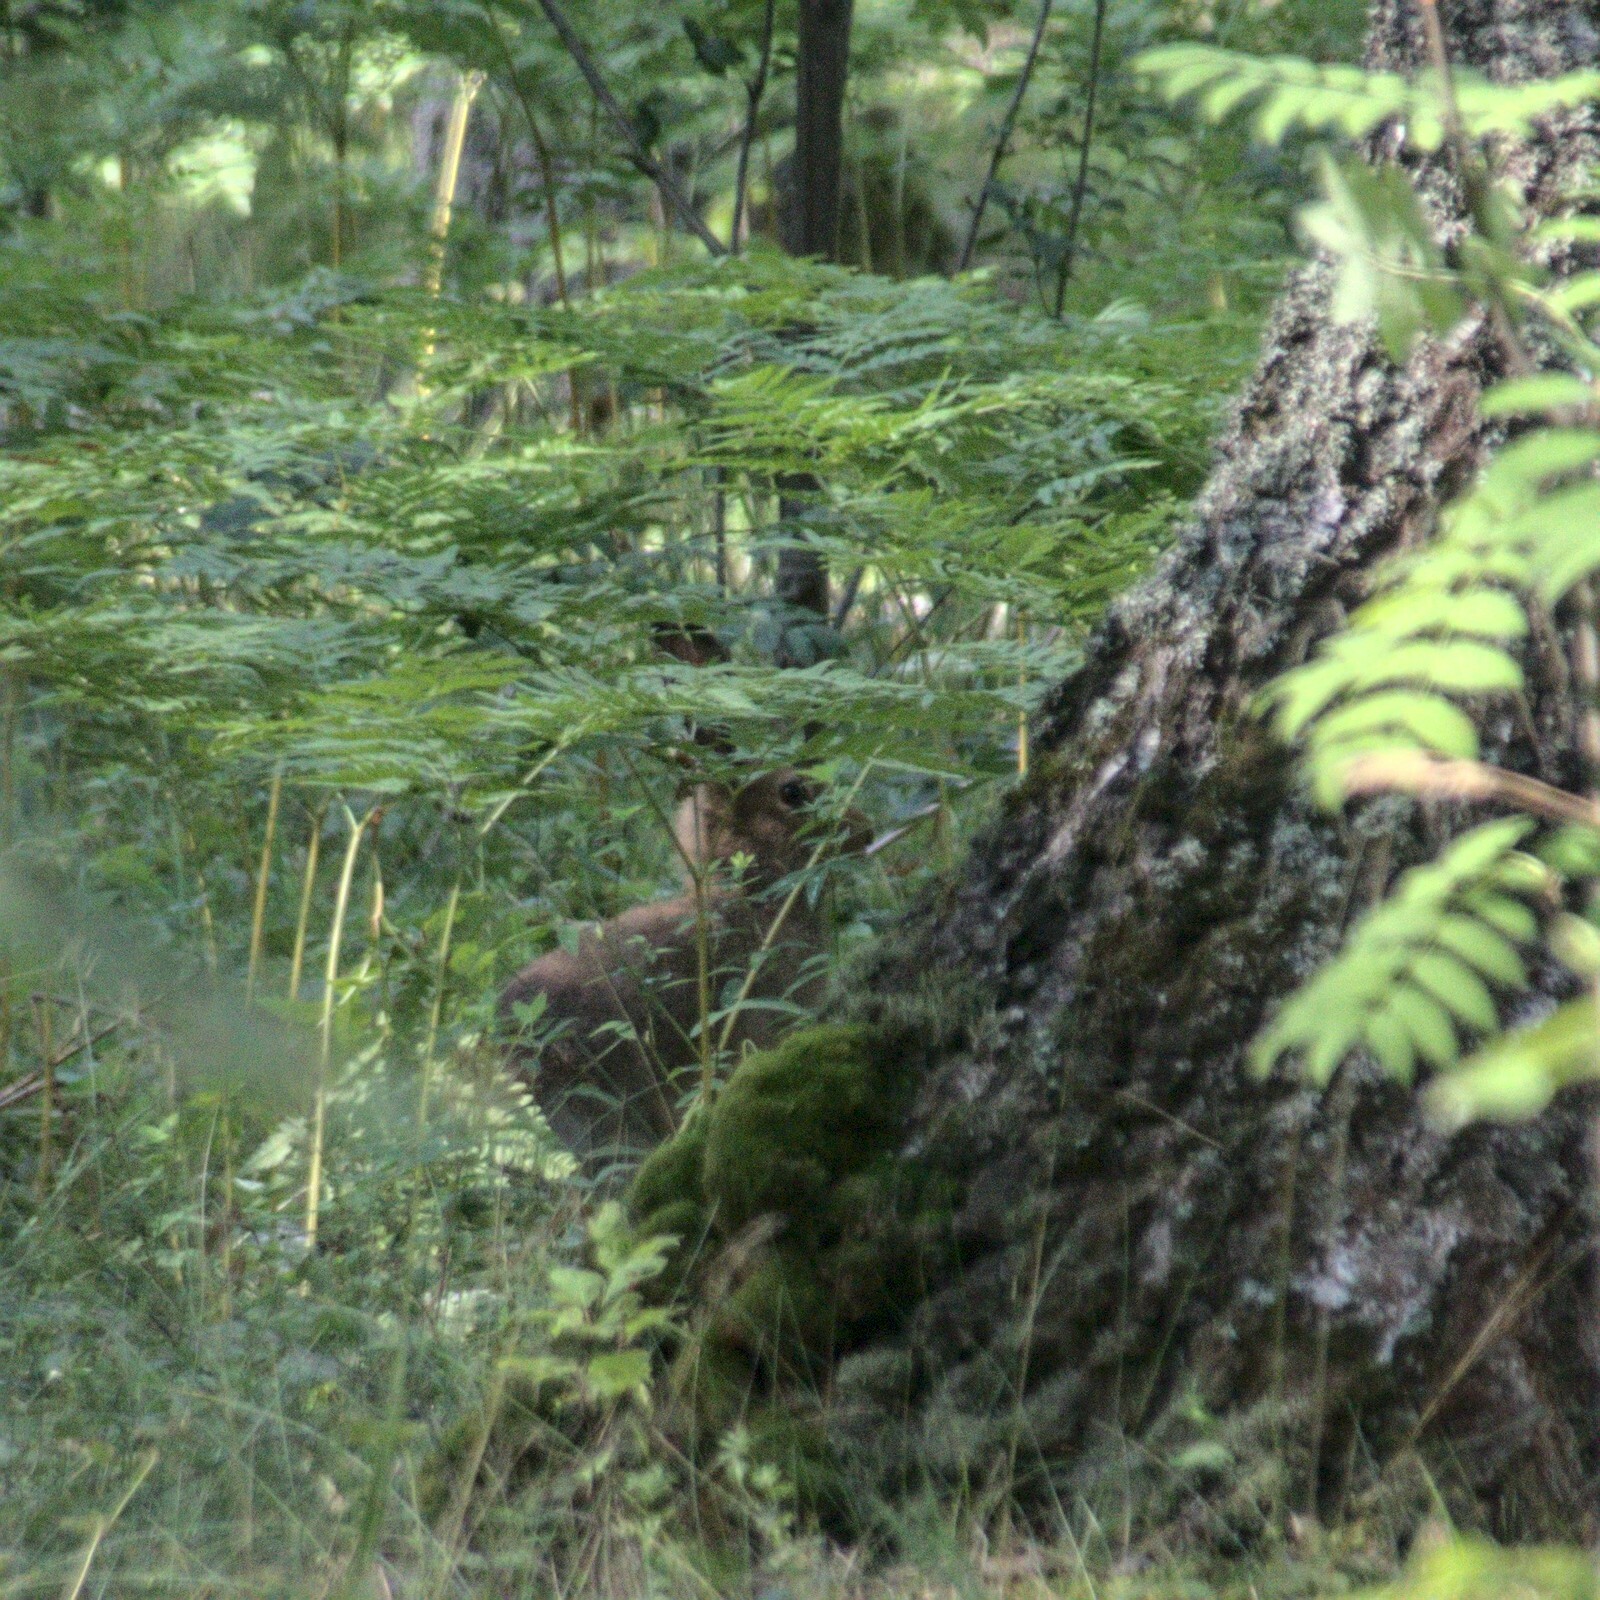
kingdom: Animalia
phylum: Chordata
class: Mammalia
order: Lagomorpha
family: Leporidae
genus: Lepus
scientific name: Lepus timidus
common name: Mountain hare
